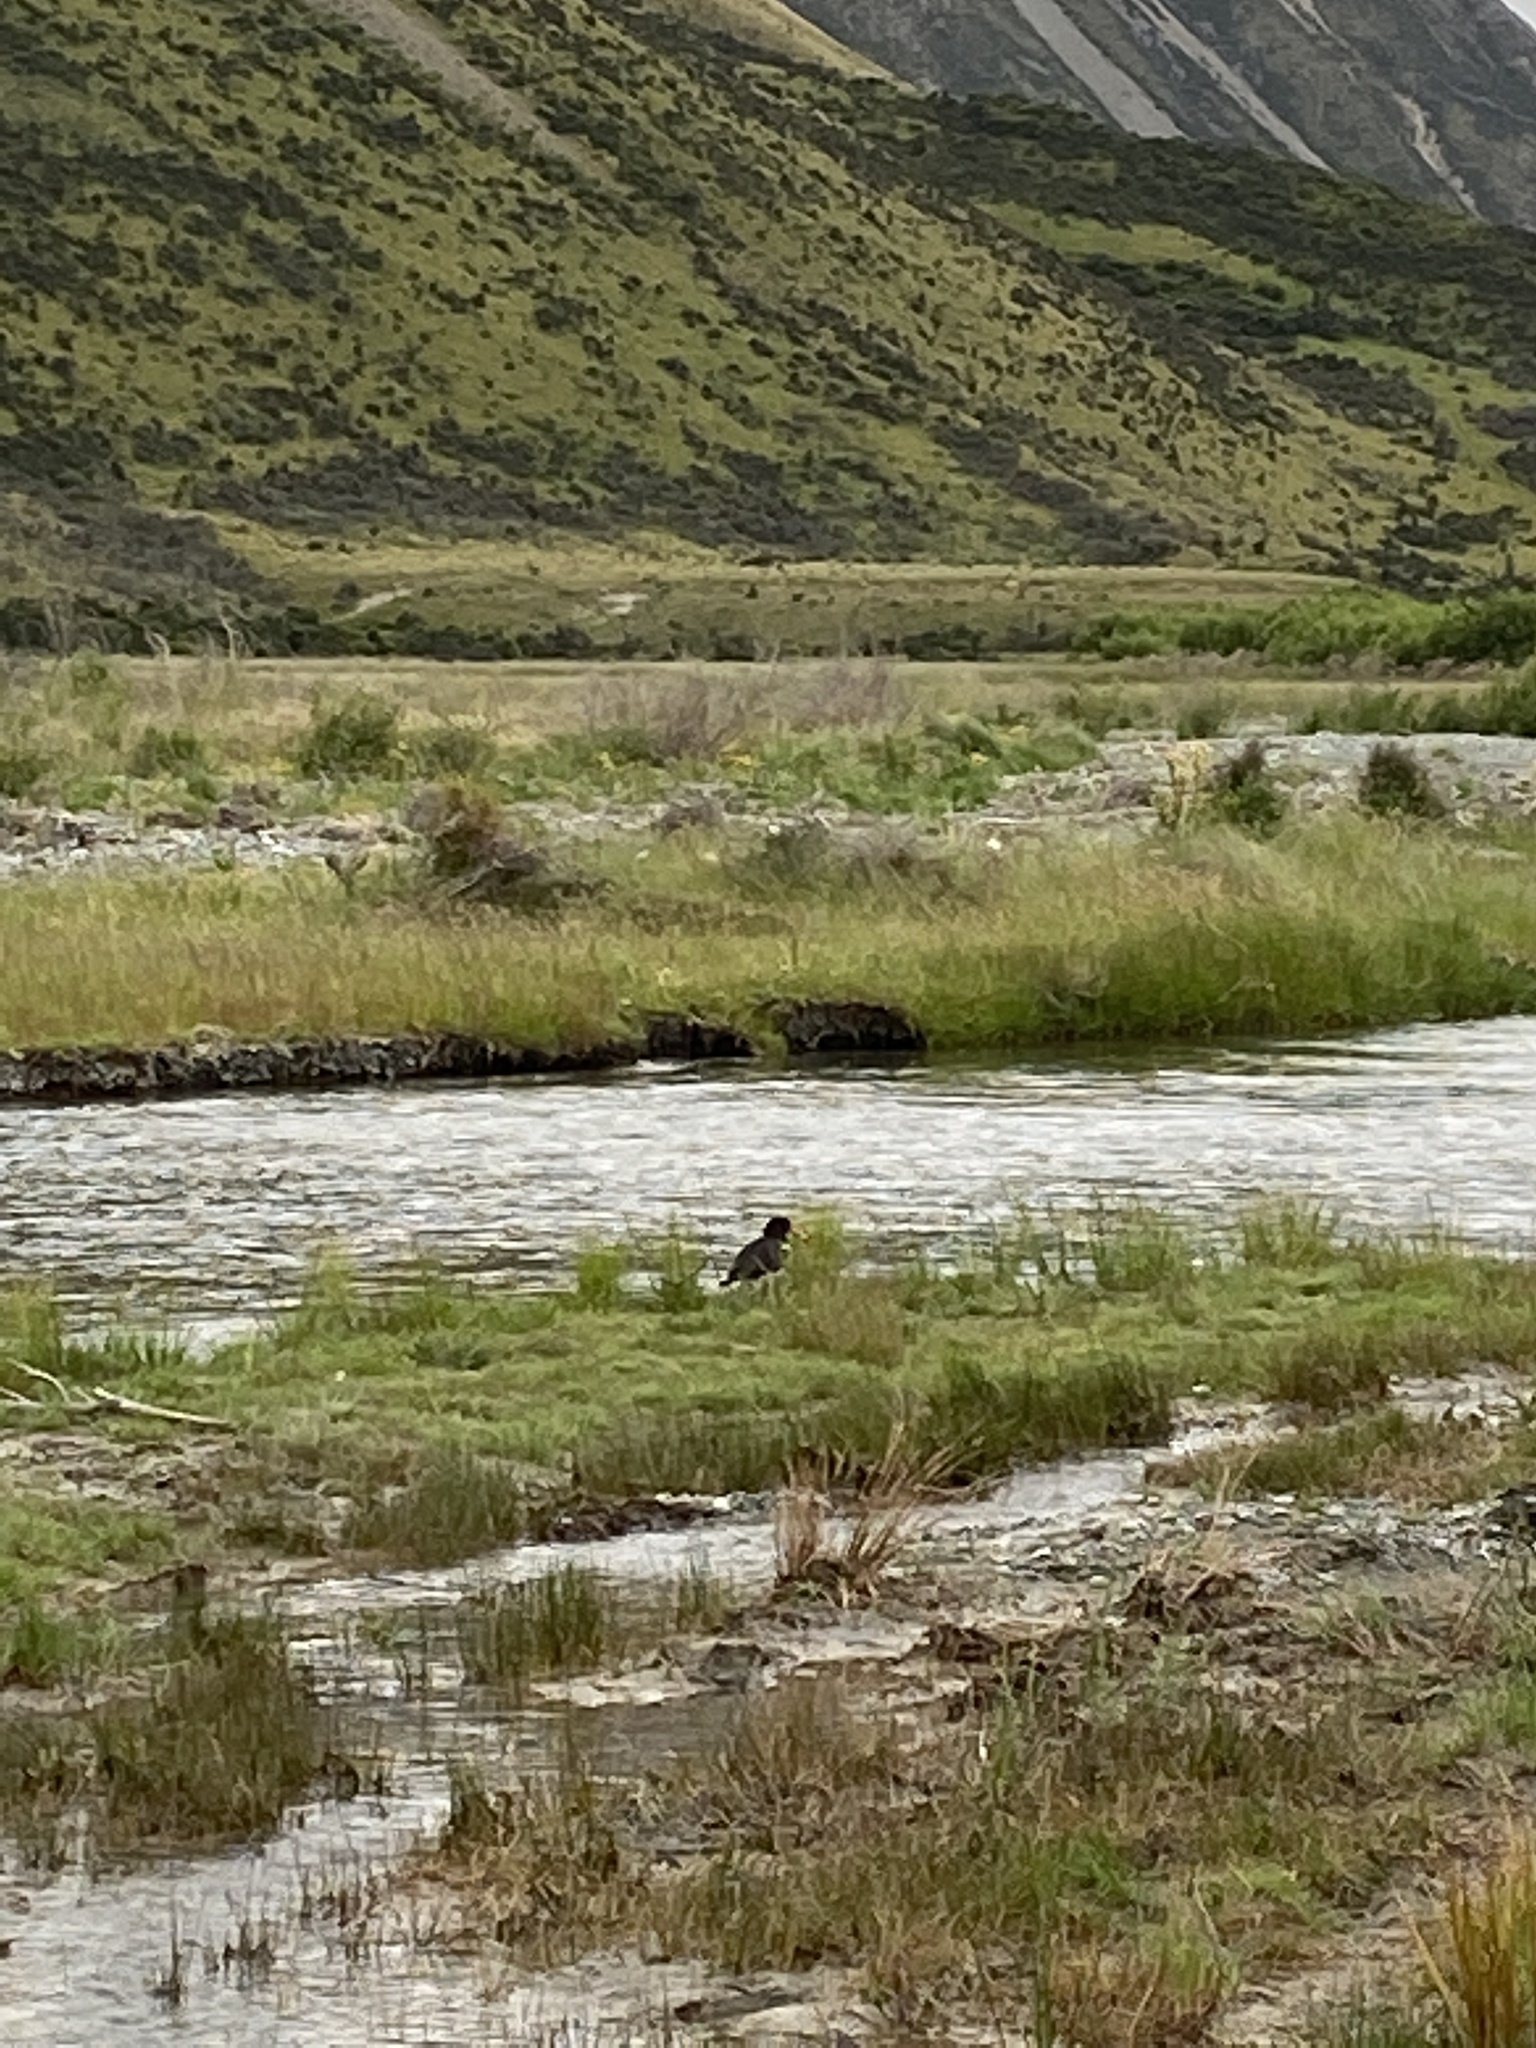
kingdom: Animalia
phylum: Chordata
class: Aves
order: Charadriiformes
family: Haematopodidae
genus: Haematopus
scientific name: Haematopus finschi
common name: South island oystercatcher
